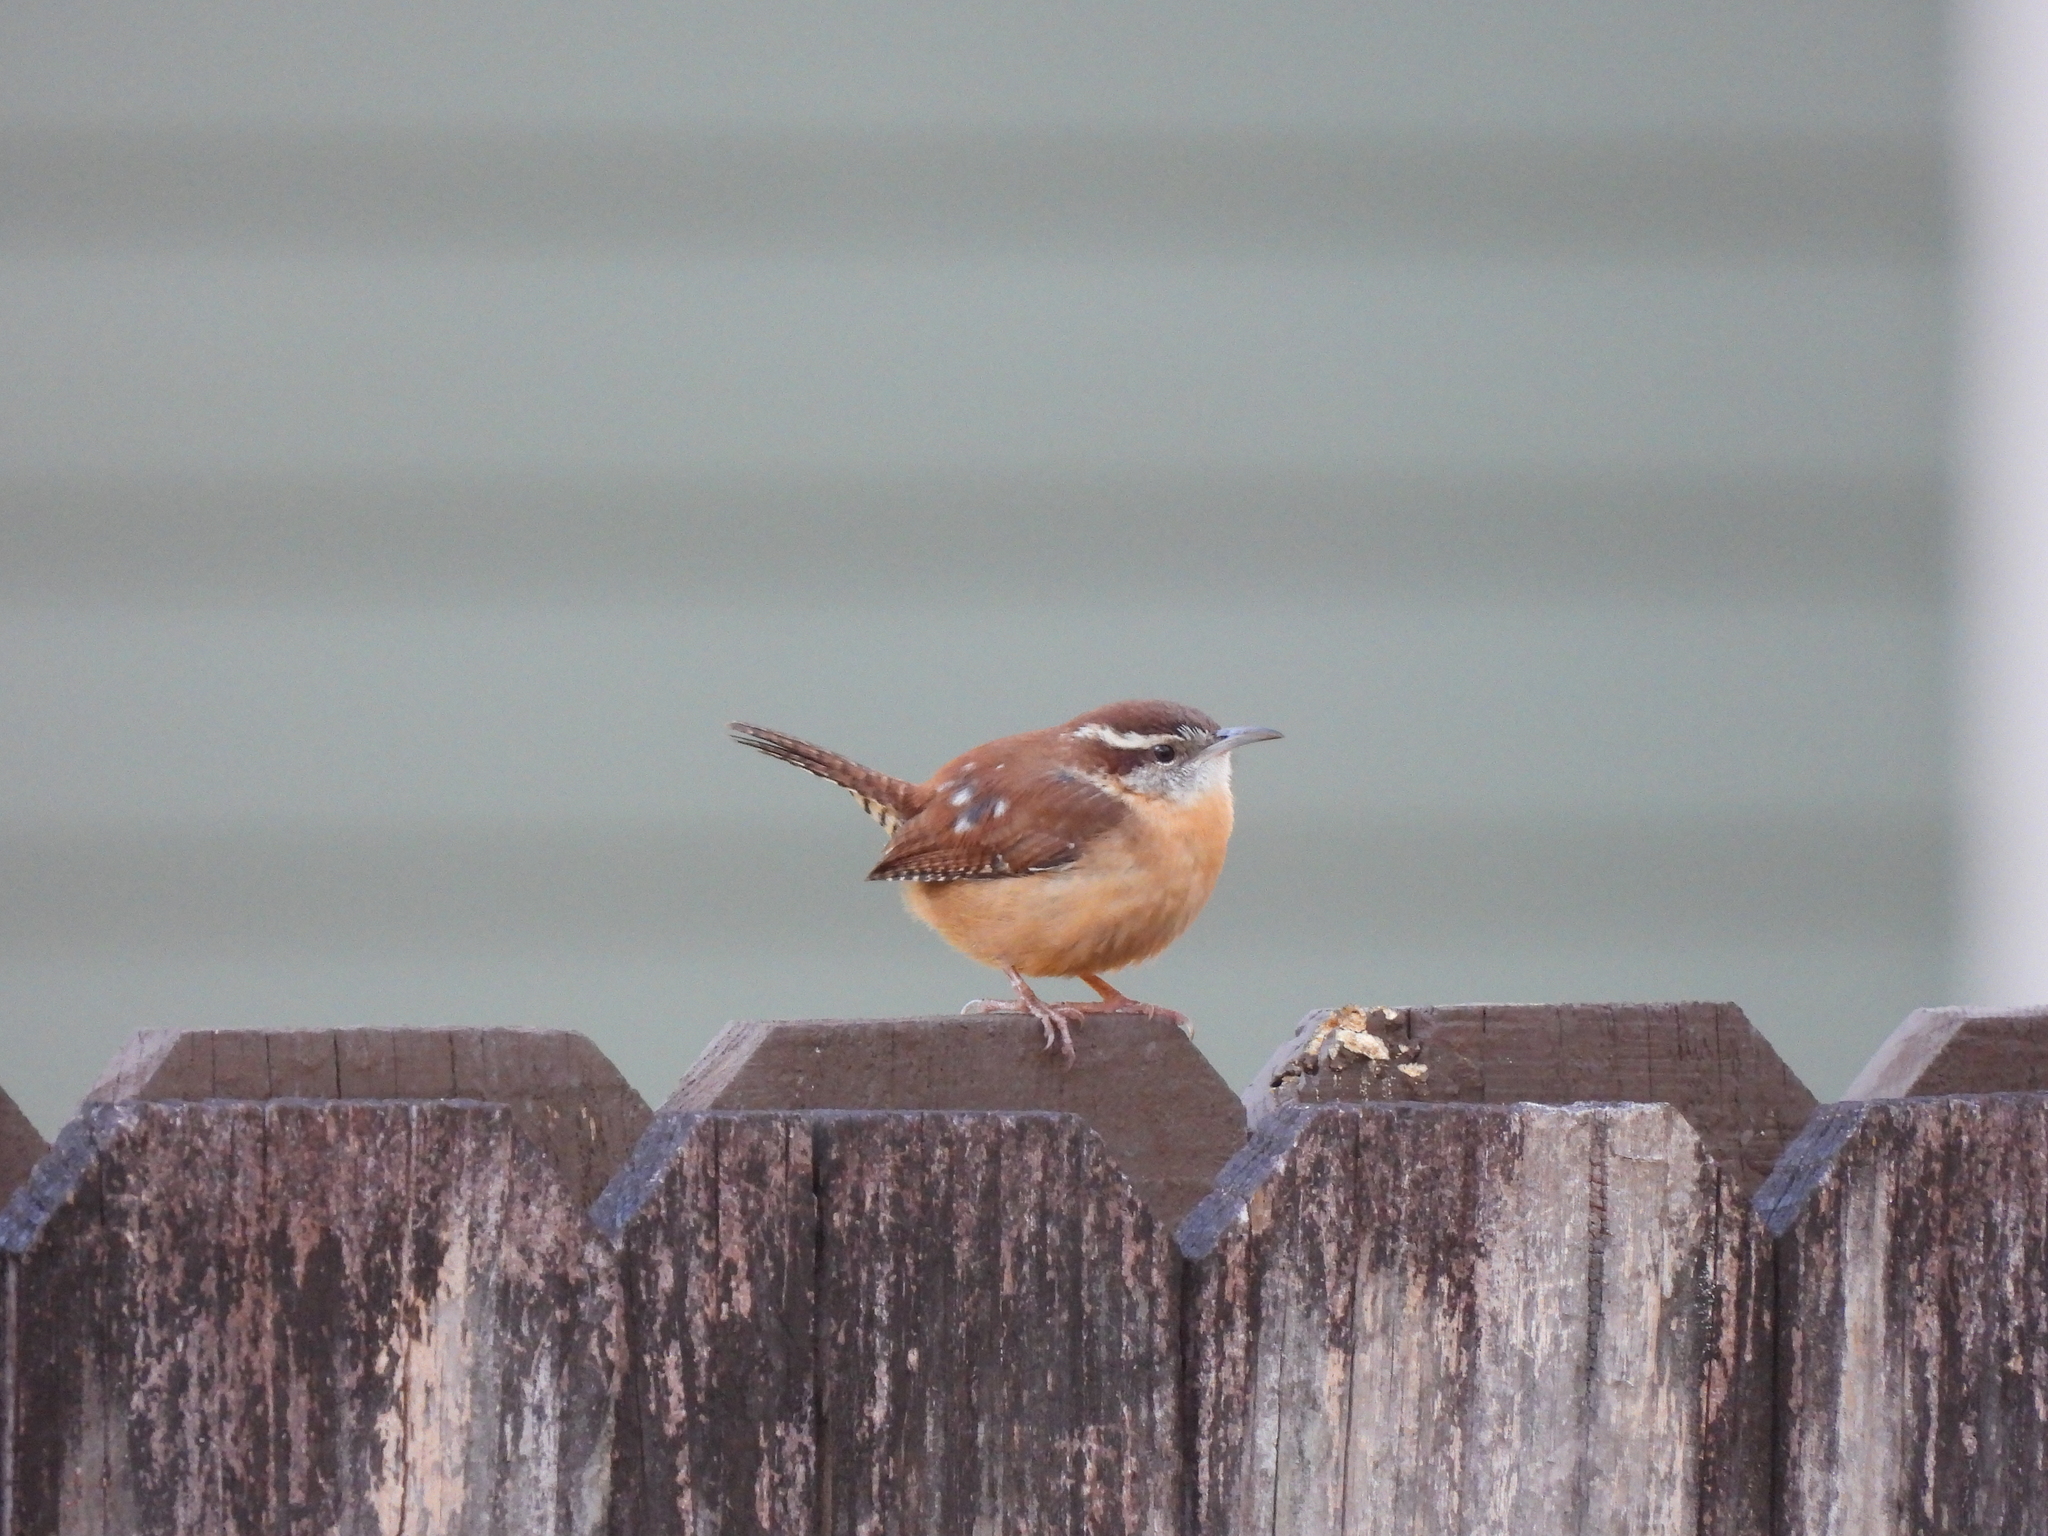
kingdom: Animalia
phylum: Chordata
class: Aves
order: Passeriformes
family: Troglodytidae
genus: Thryothorus
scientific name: Thryothorus ludovicianus
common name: Carolina wren
